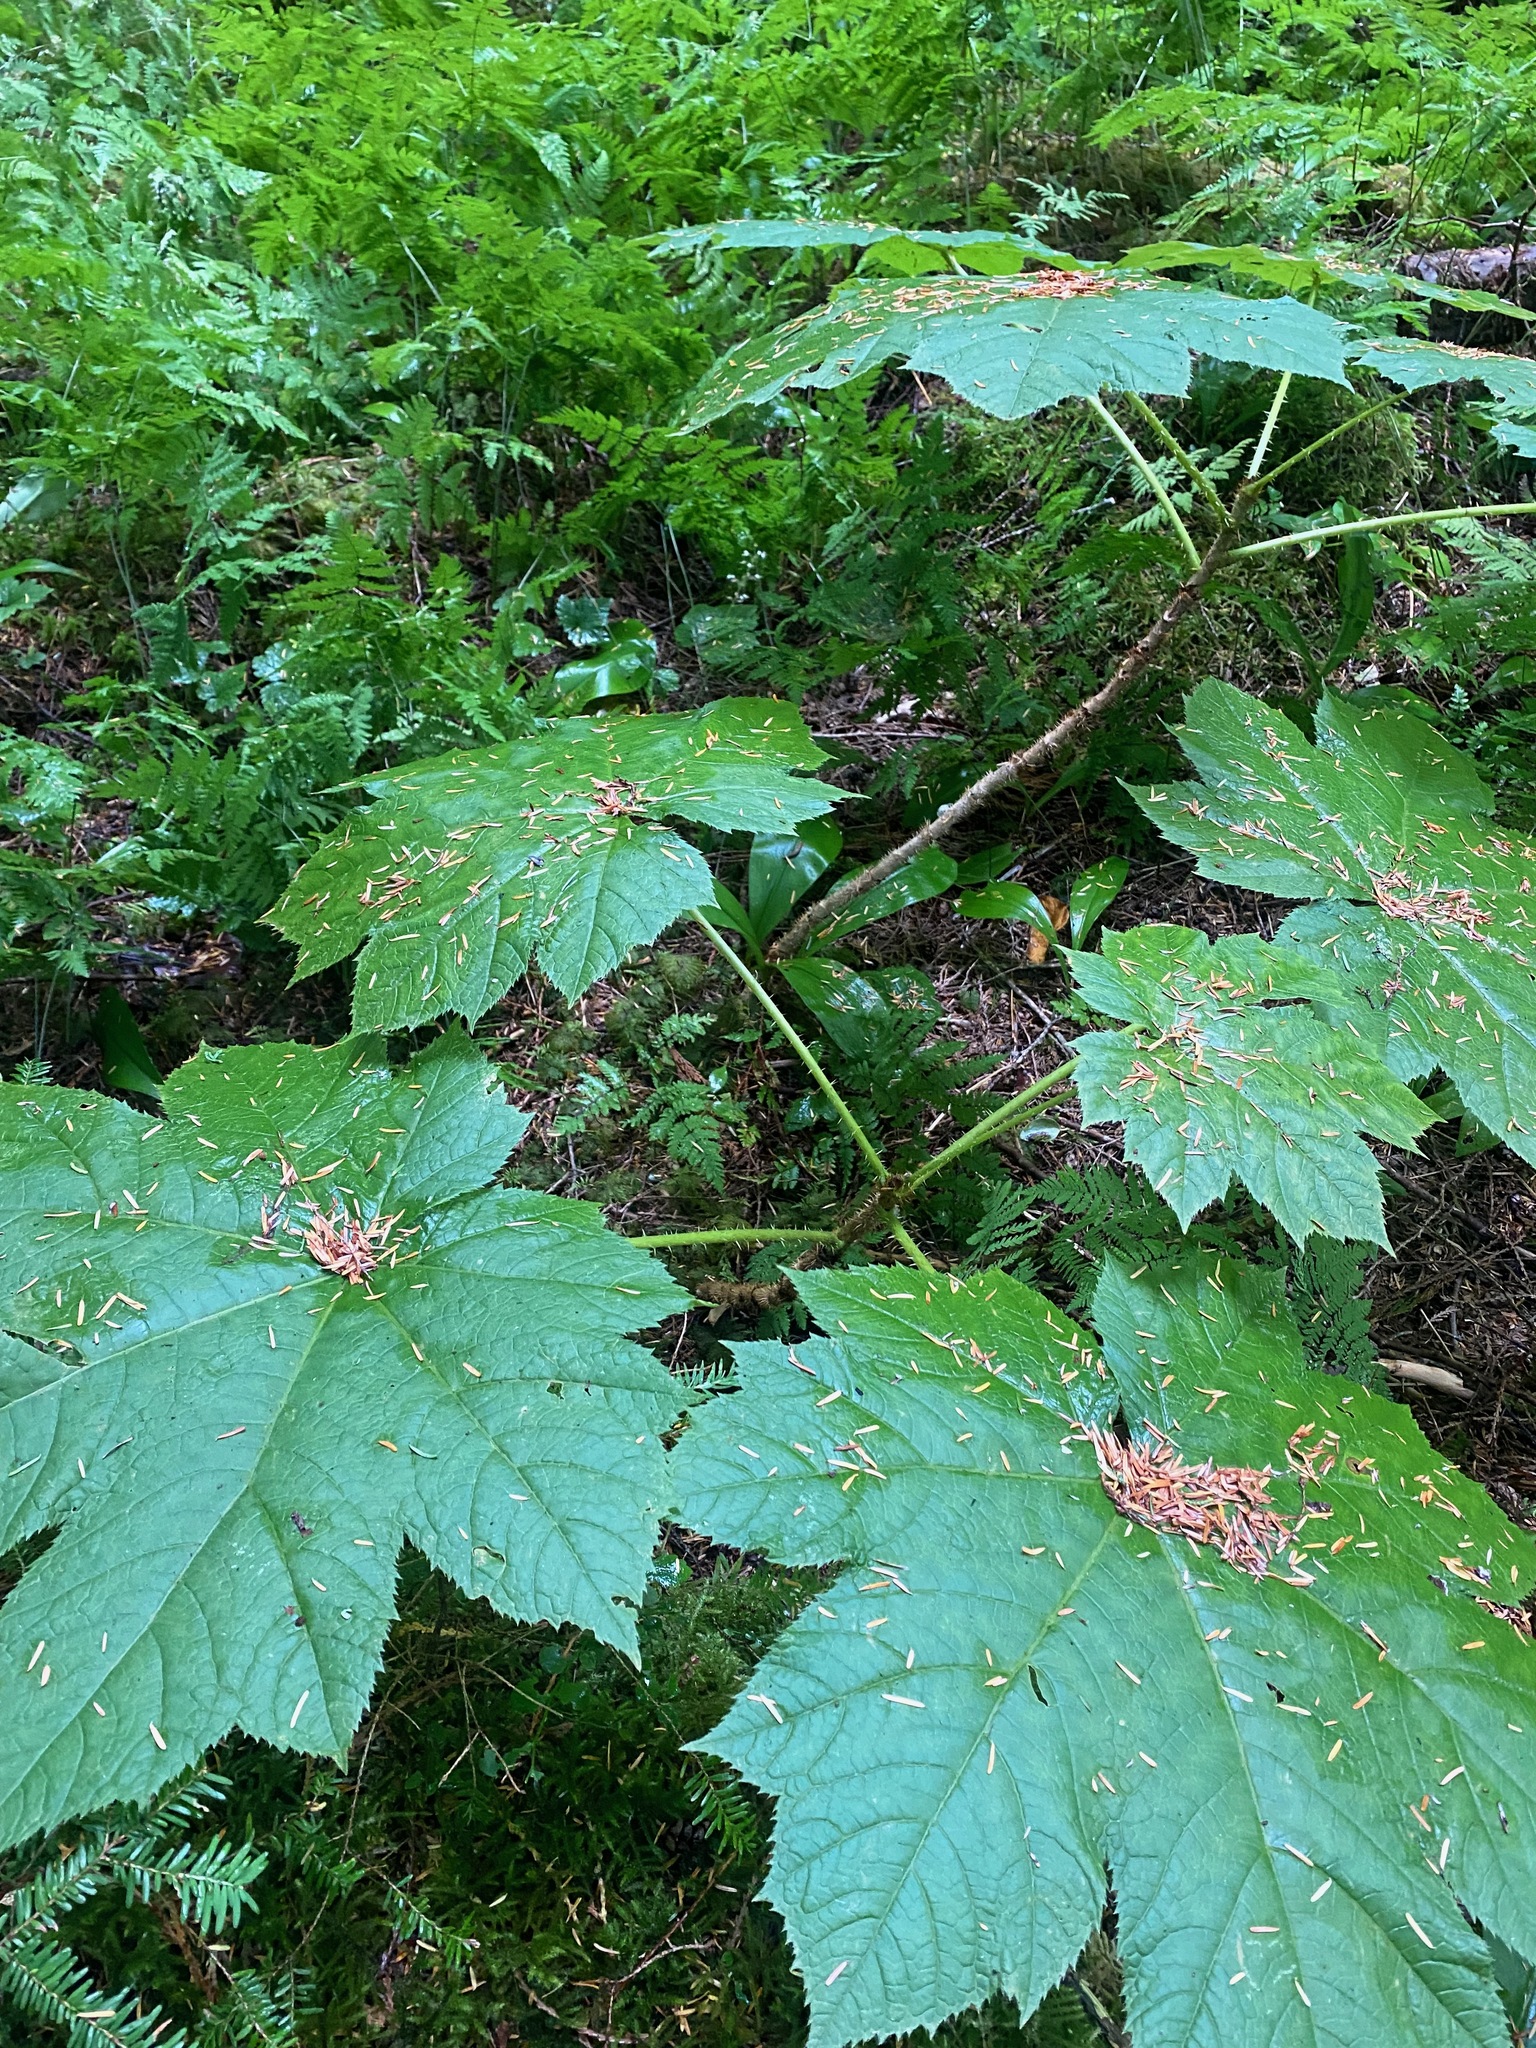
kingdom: Plantae
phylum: Tracheophyta
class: Magnoliopsida
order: Apiales
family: Araliaceae
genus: Oplopanax
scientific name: Oplopanax horridus
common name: Devil's walking-stick
